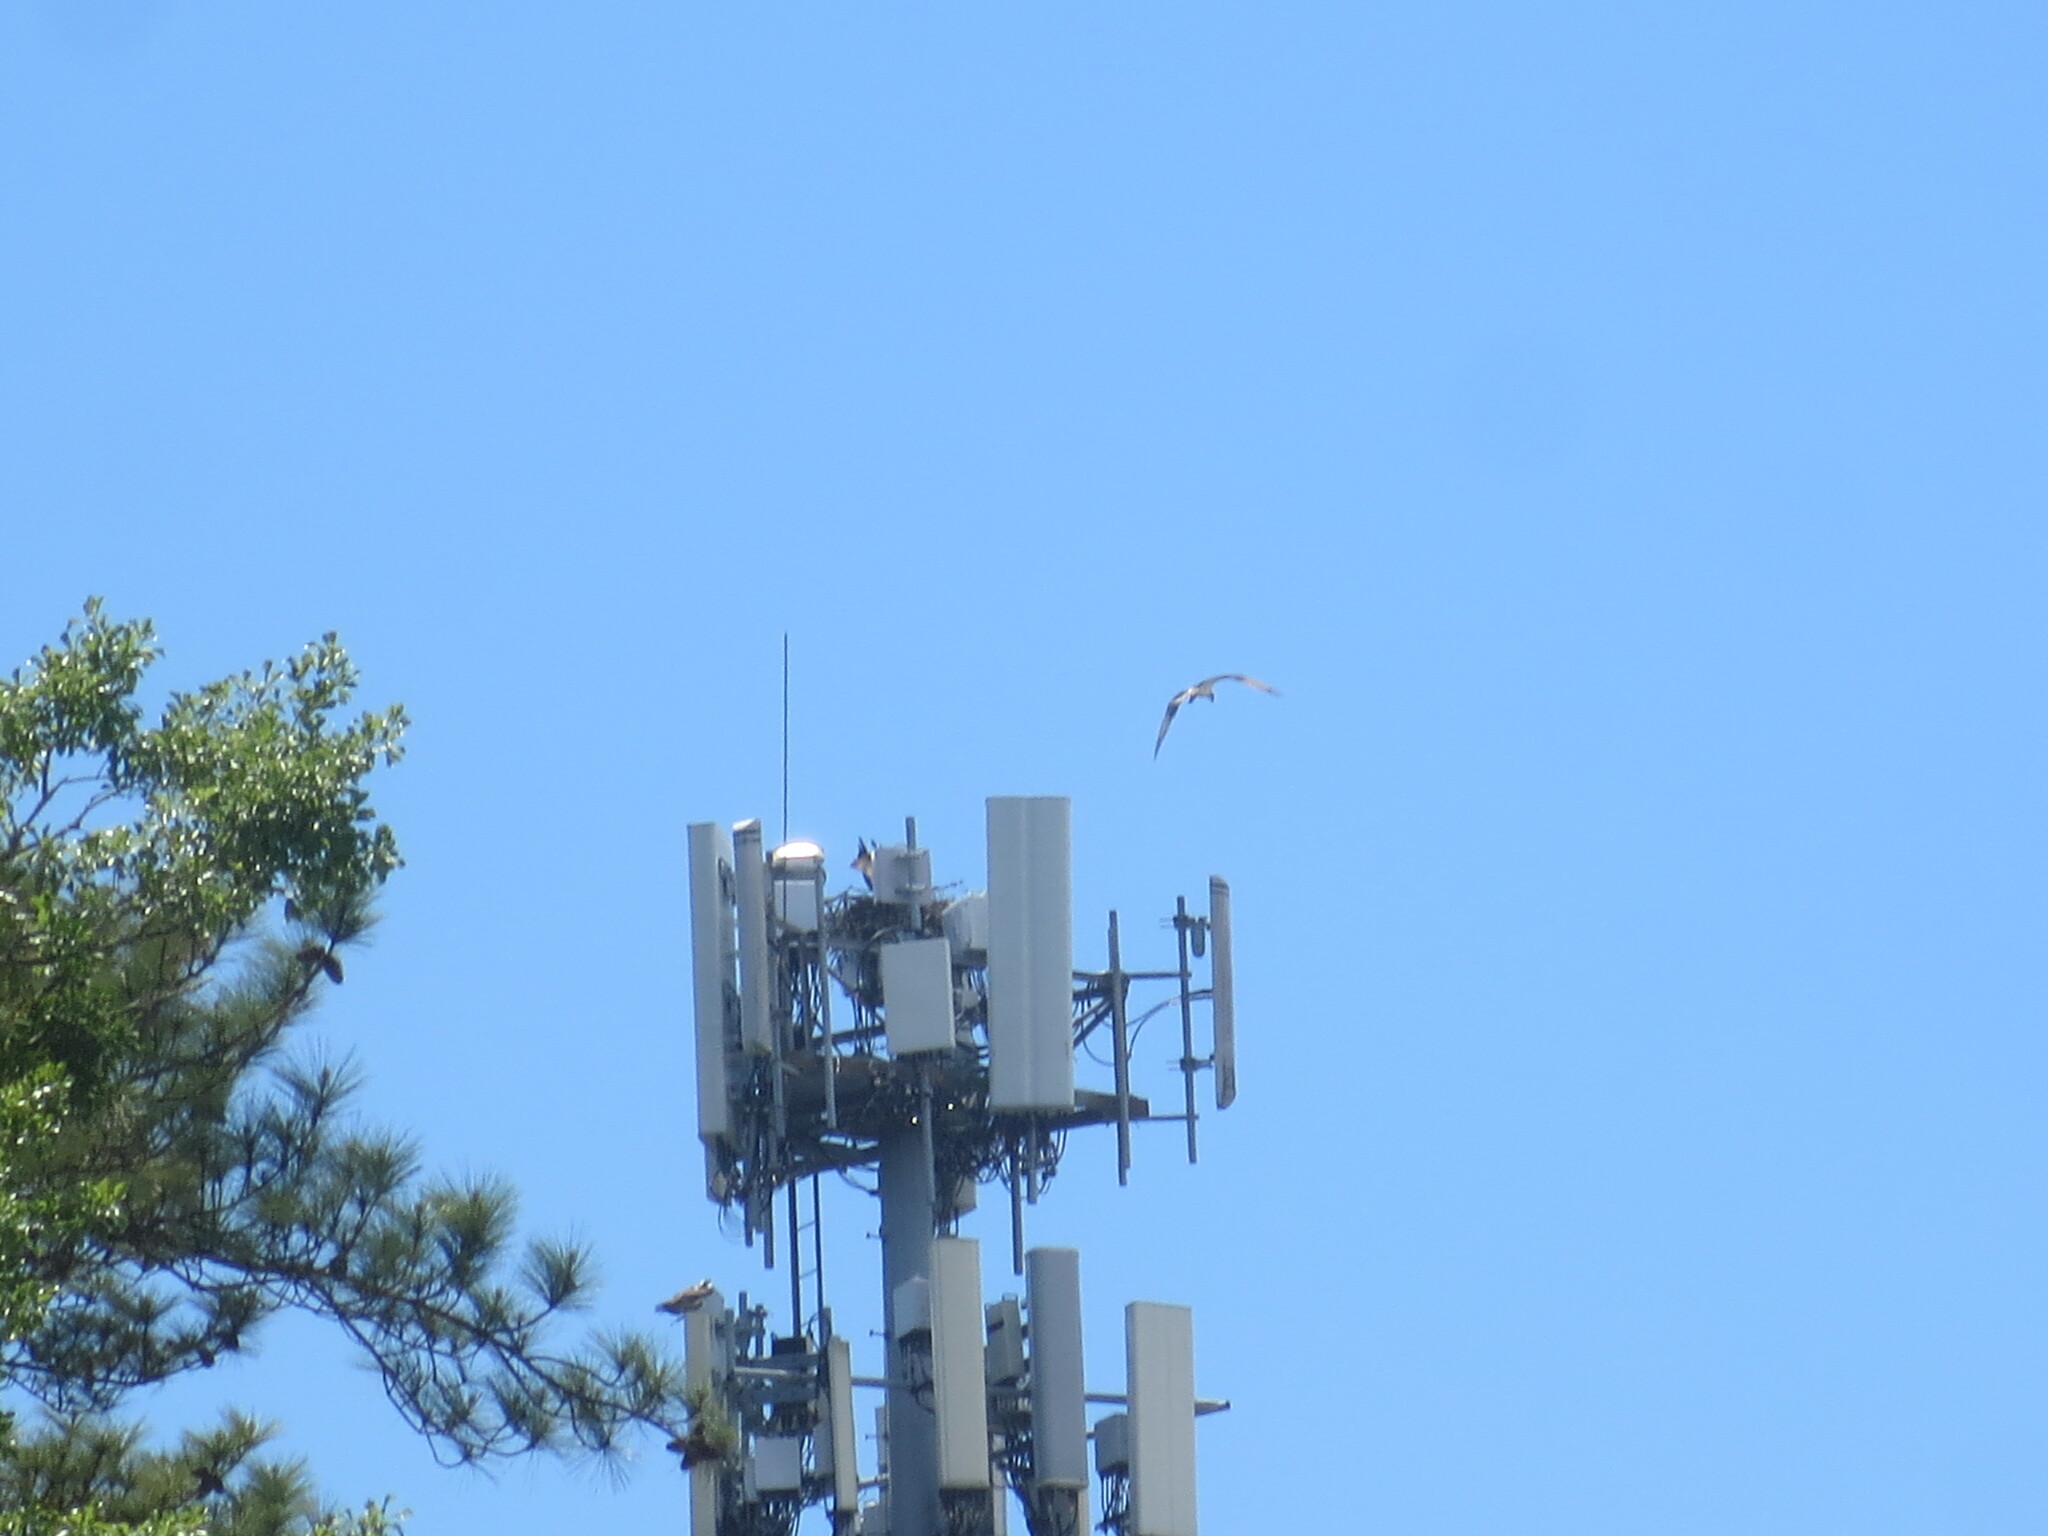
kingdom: Animalia
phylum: Chordata
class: Aves
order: Accipitriformes
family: Pandionidae
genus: Pandion
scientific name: Pandion haliaetus
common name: Osprey
